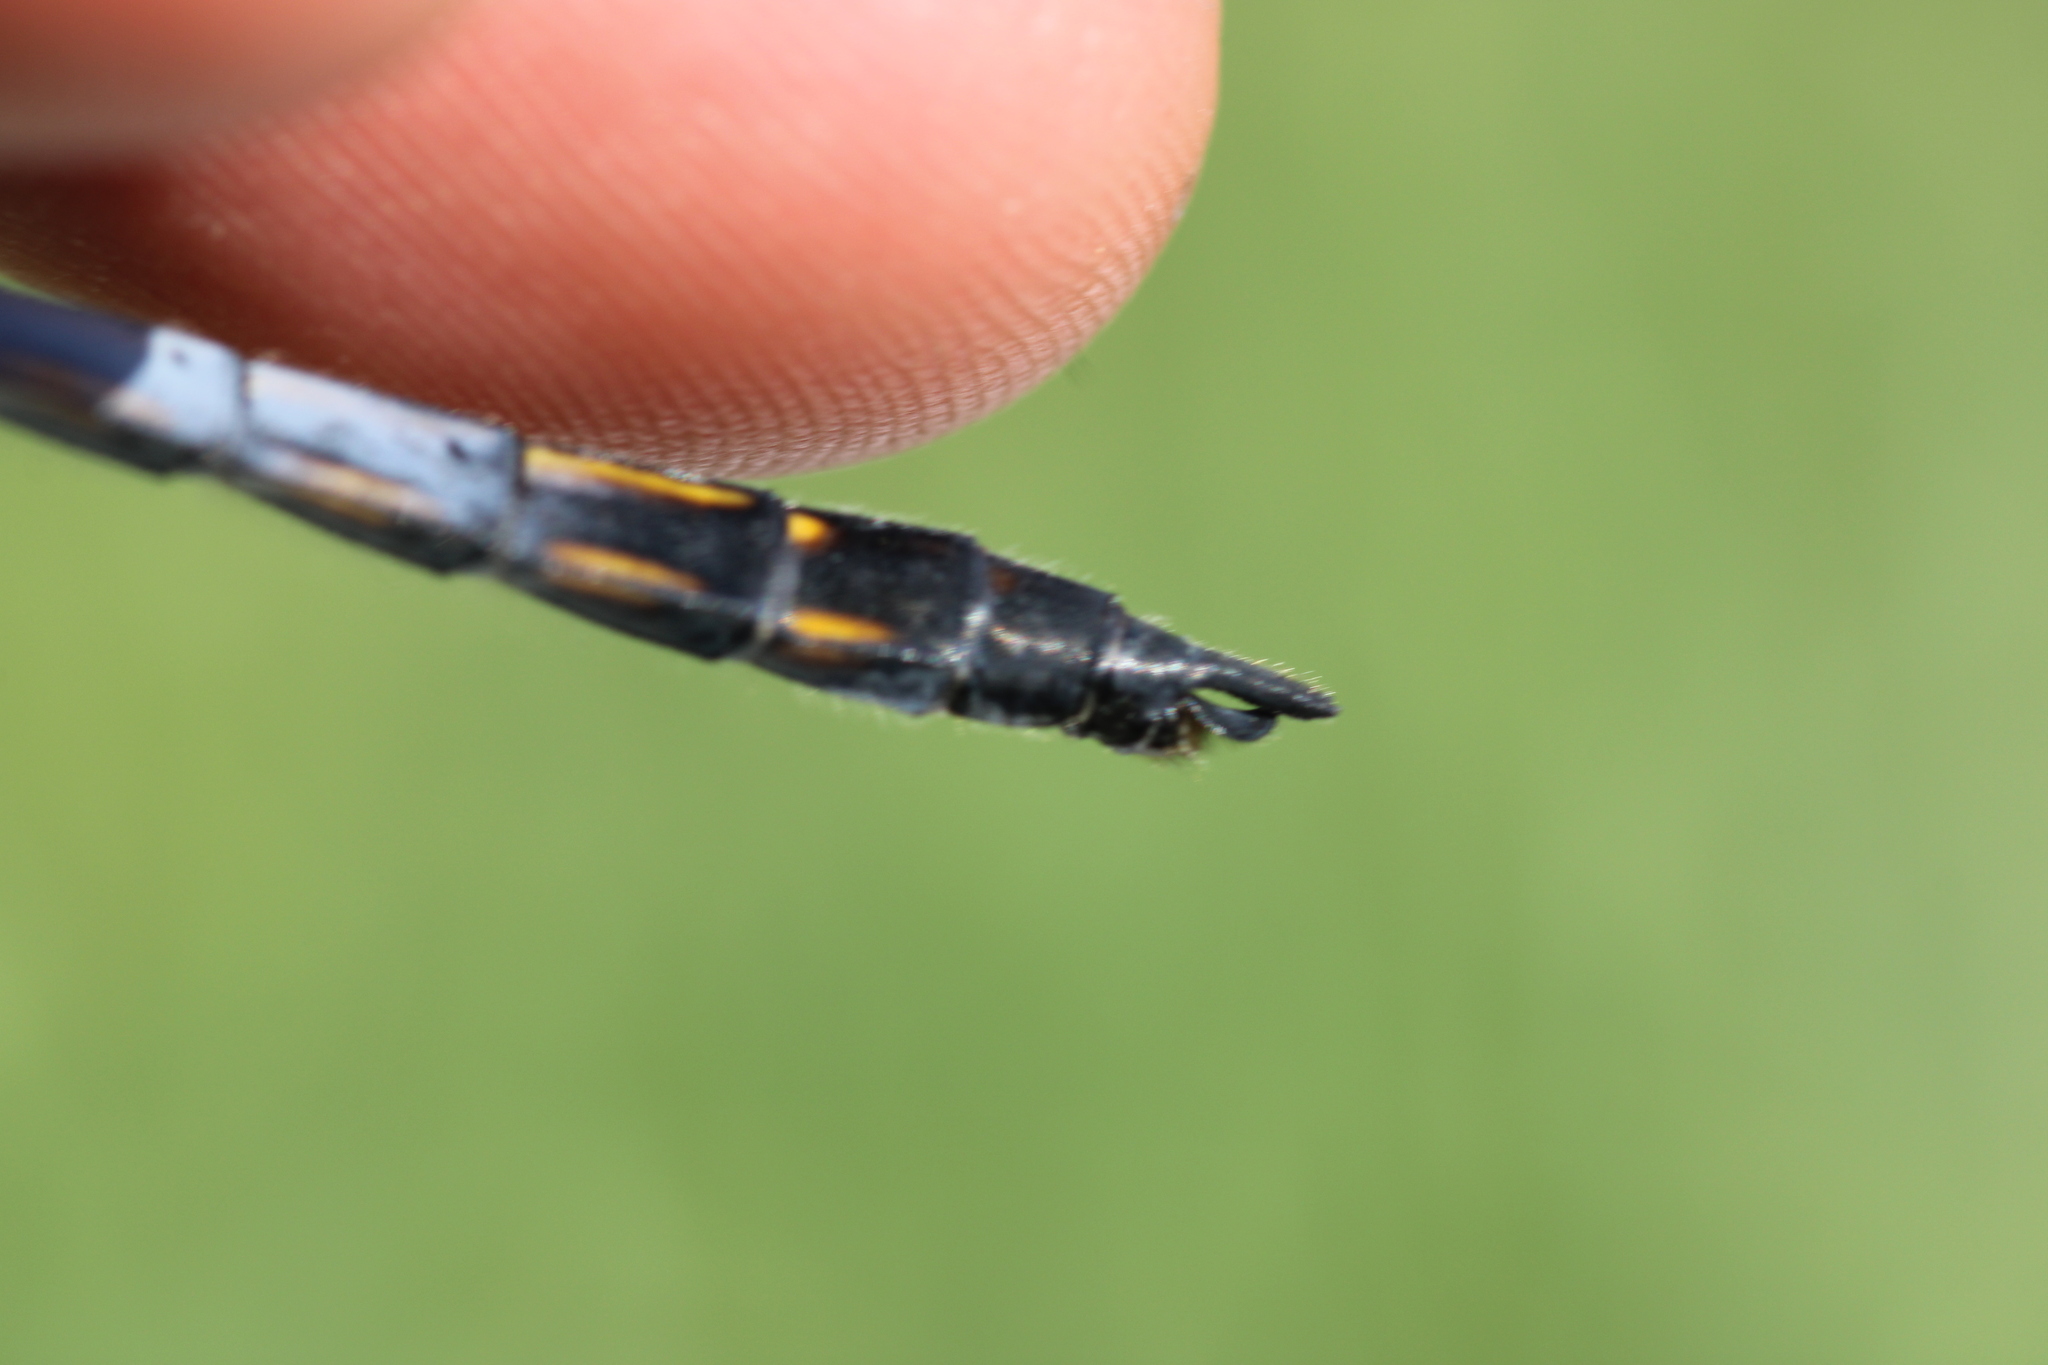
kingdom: Animalia
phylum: Arthropoda
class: Insecta
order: Odonata
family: Libellulidae
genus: Orthetrum
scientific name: Orthetrum cancellatum
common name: Black-tailed skimmer
